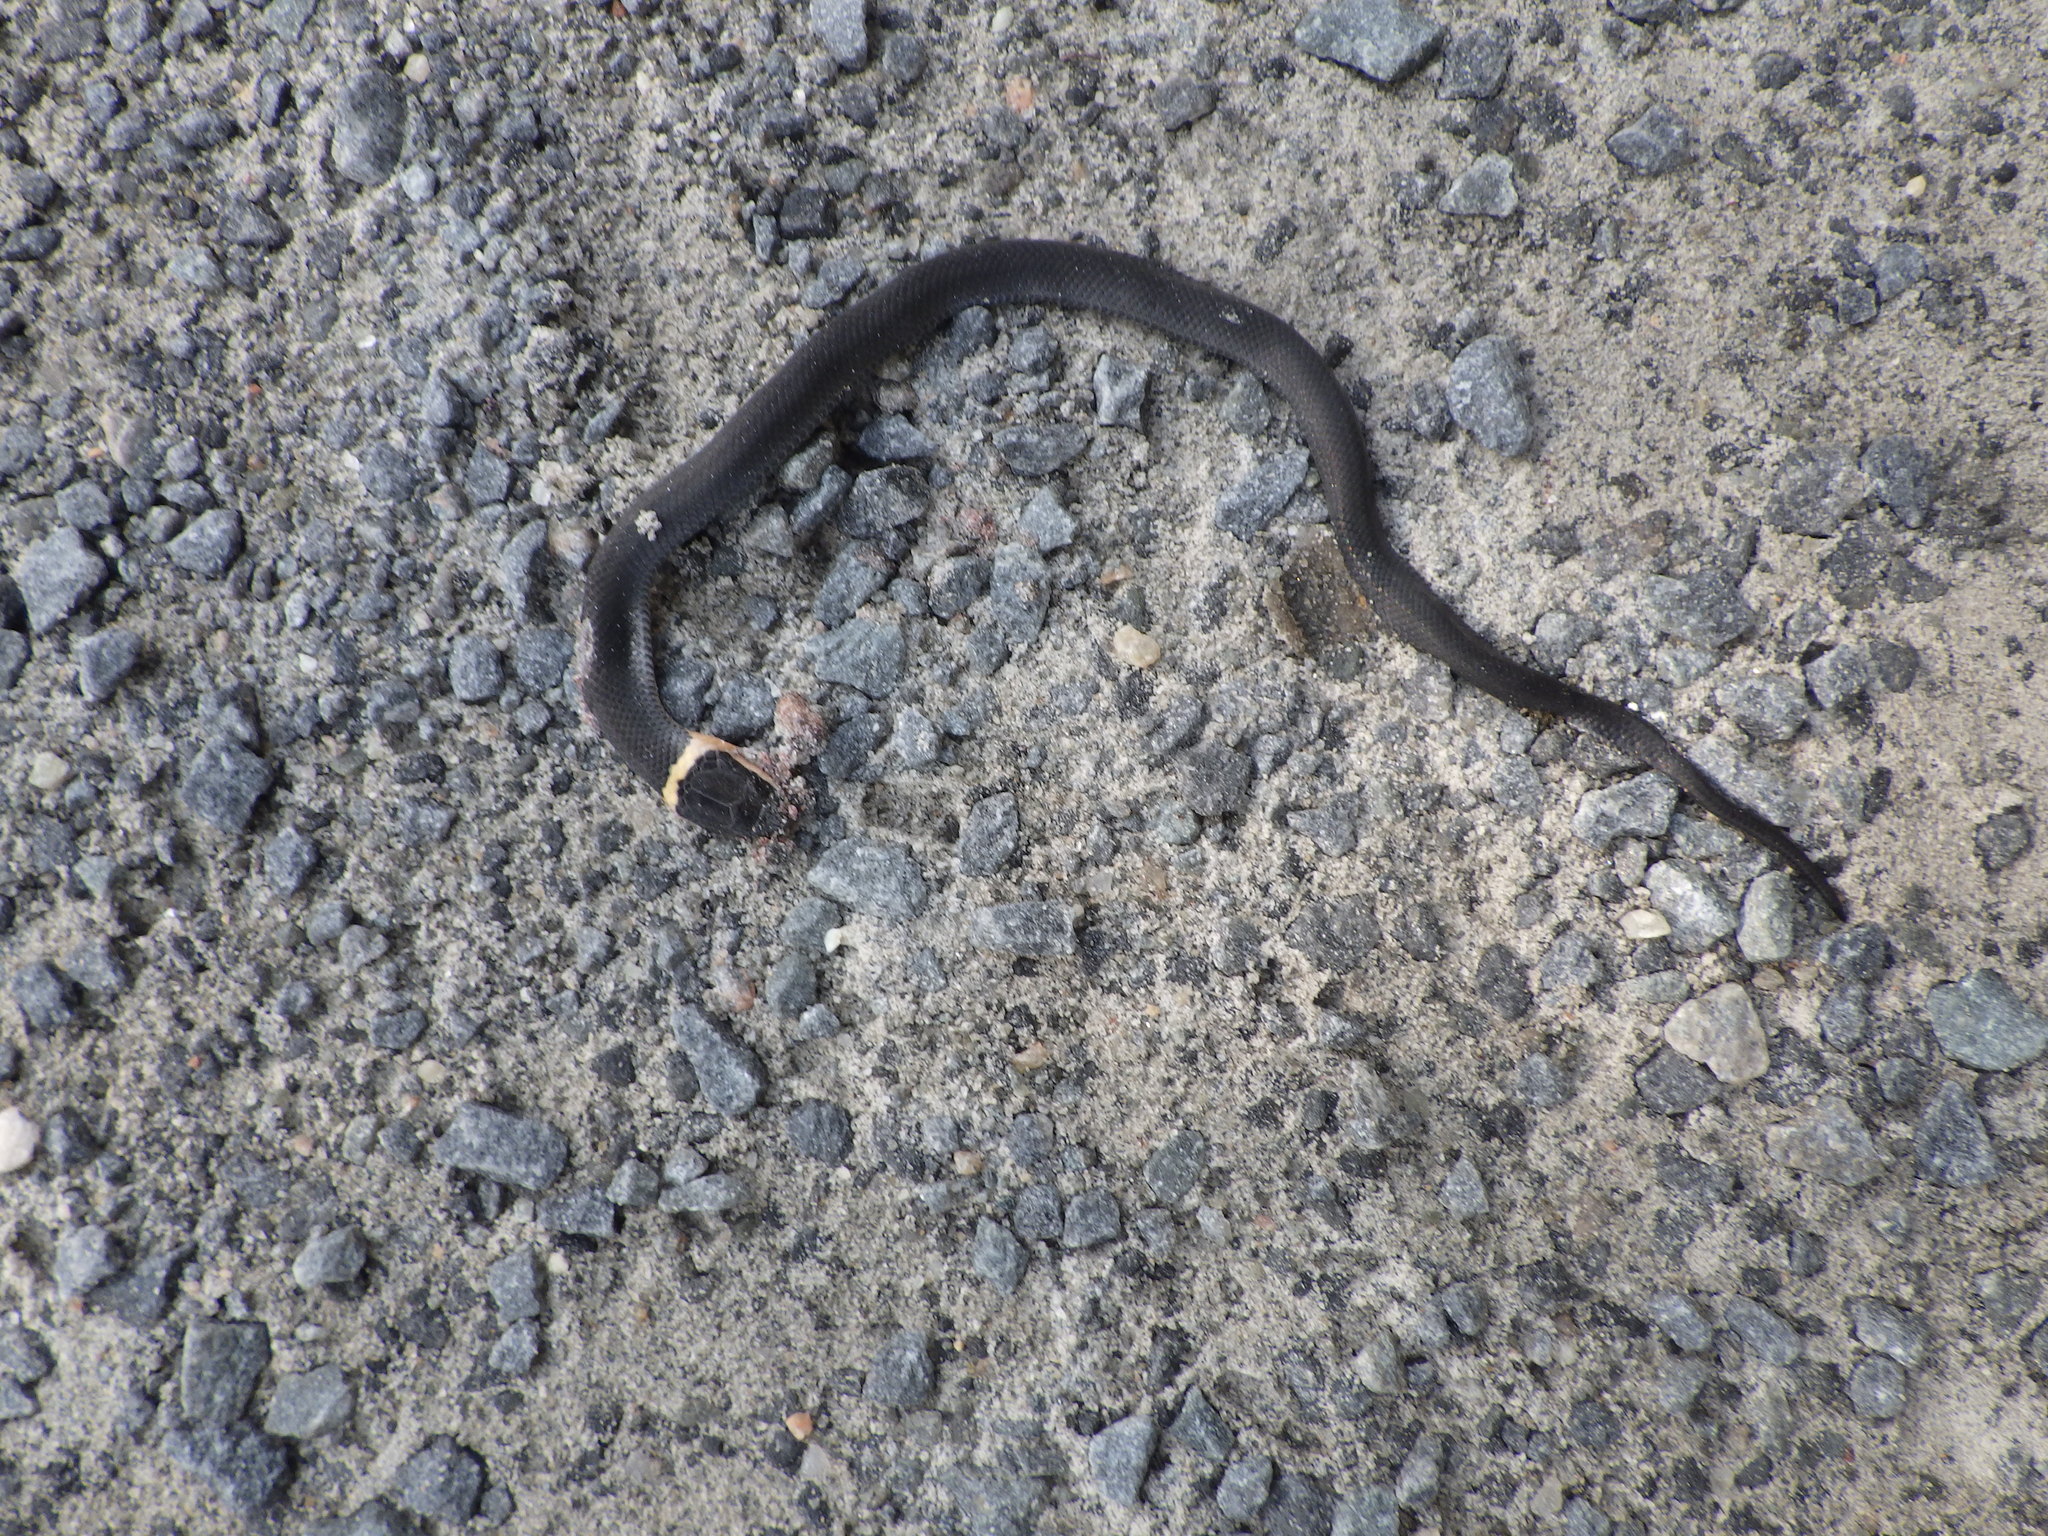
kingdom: Animalia
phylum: Chordata
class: Squamata
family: Colubridae
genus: Diadophis
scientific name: Diadophis punctatus
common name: Ringneck snake
